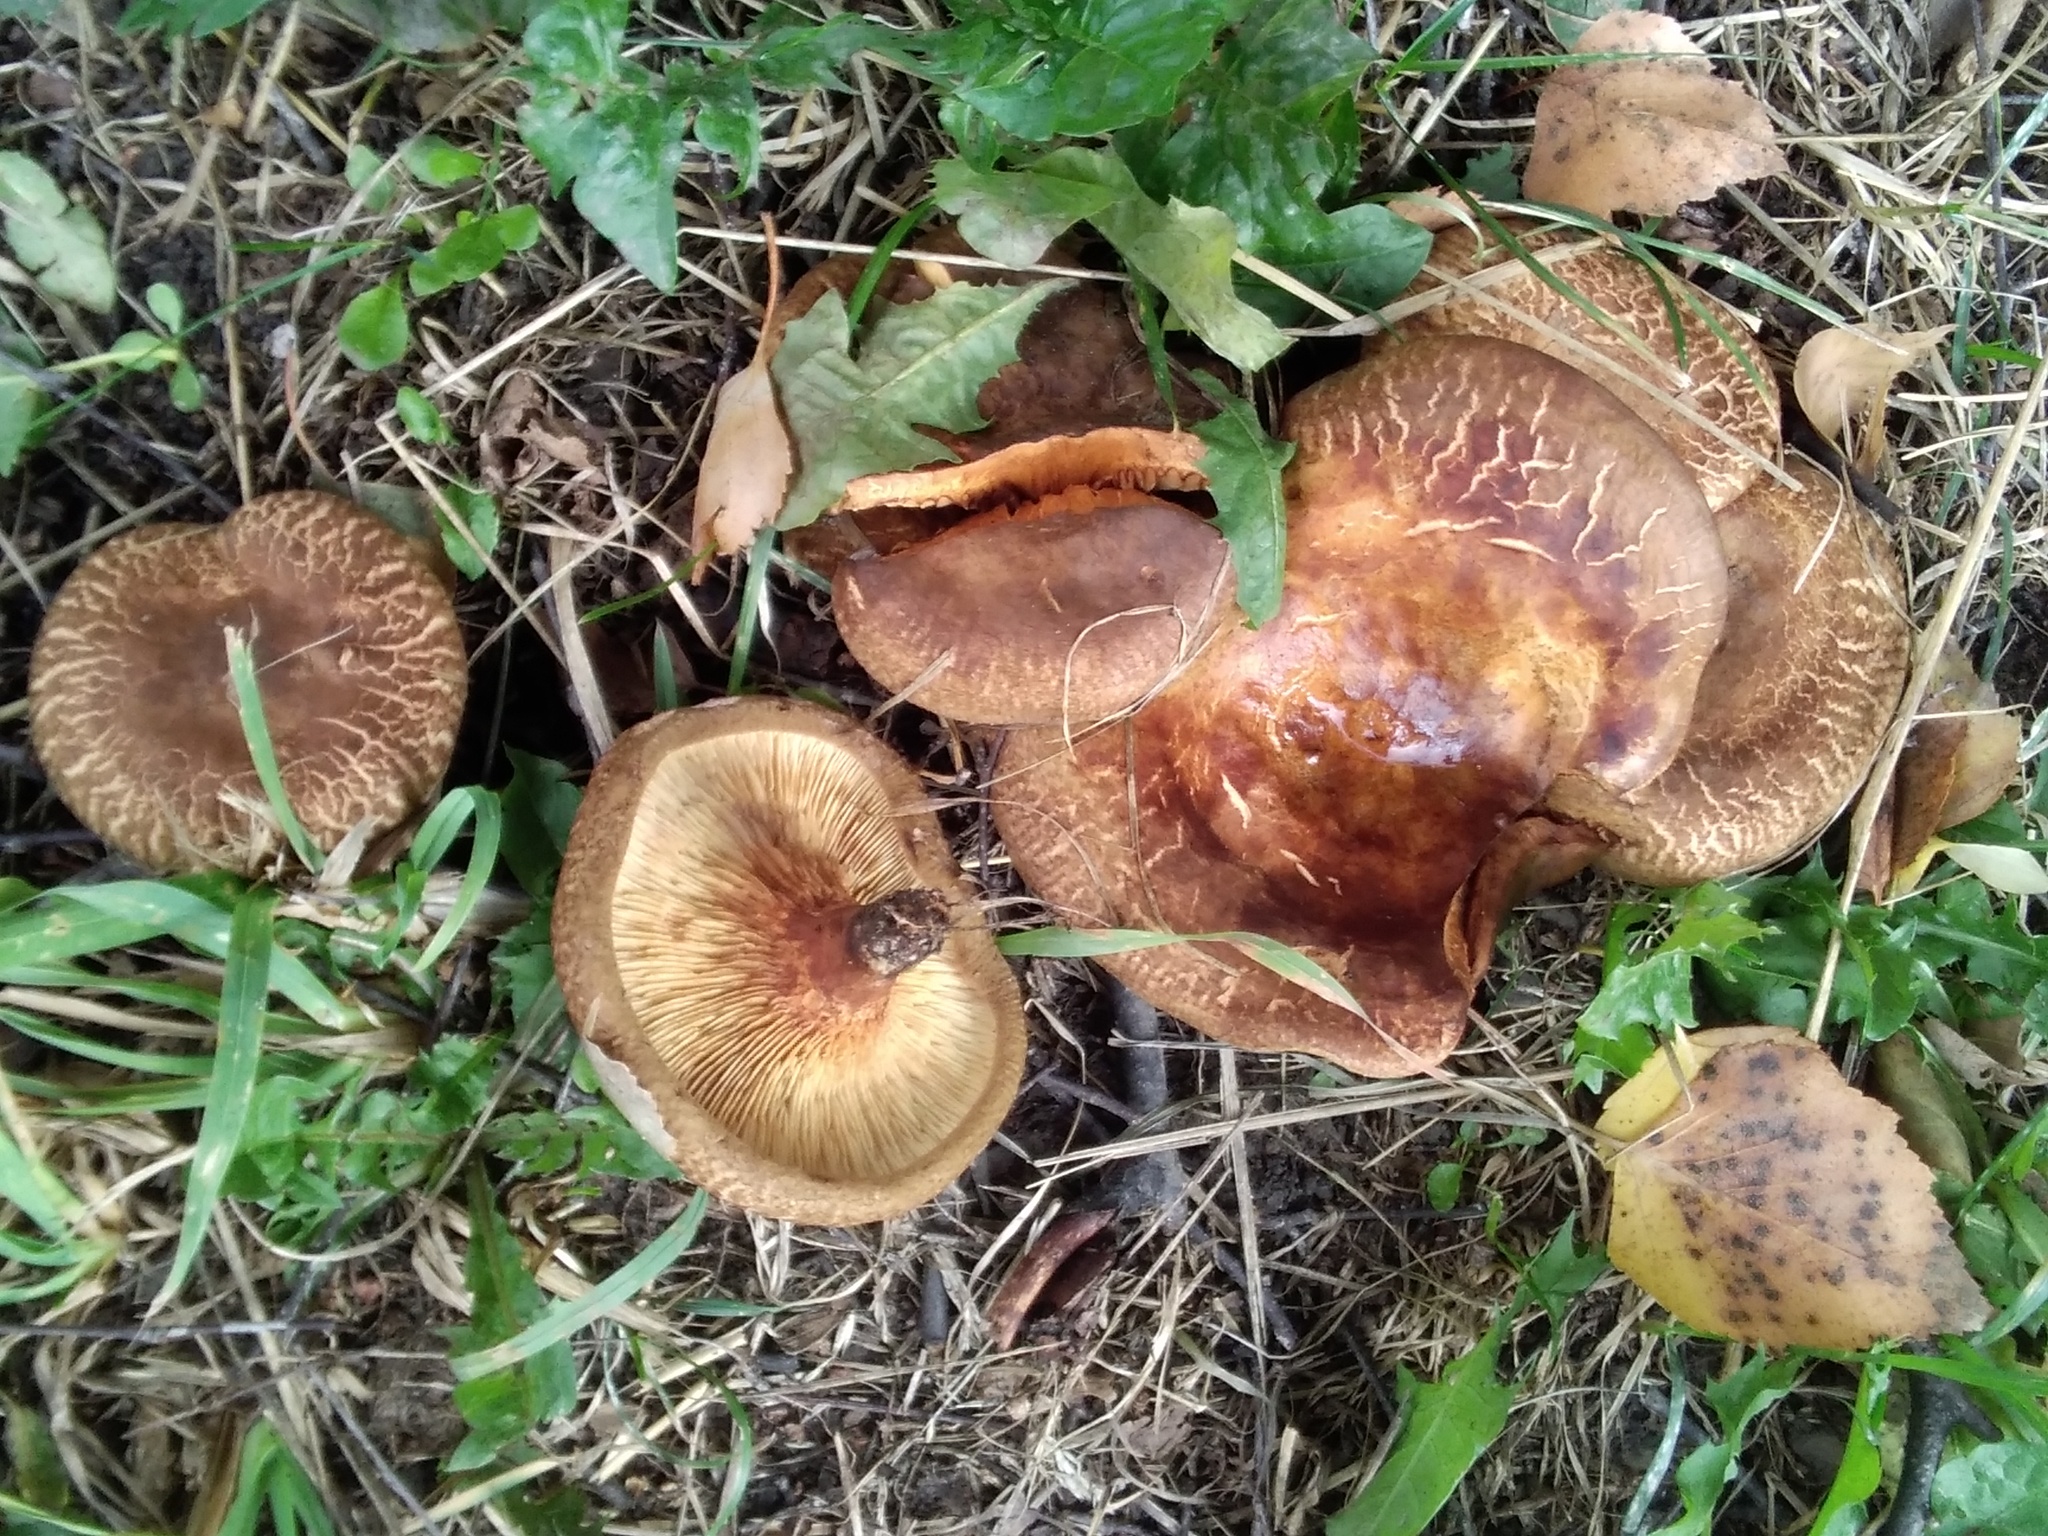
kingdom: Fungi
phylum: Basidiomycota
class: Agaricomycetes
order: Boletales
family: Paxillaceae
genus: Paxillus
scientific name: Paxillus involutus
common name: Brown roll rim
